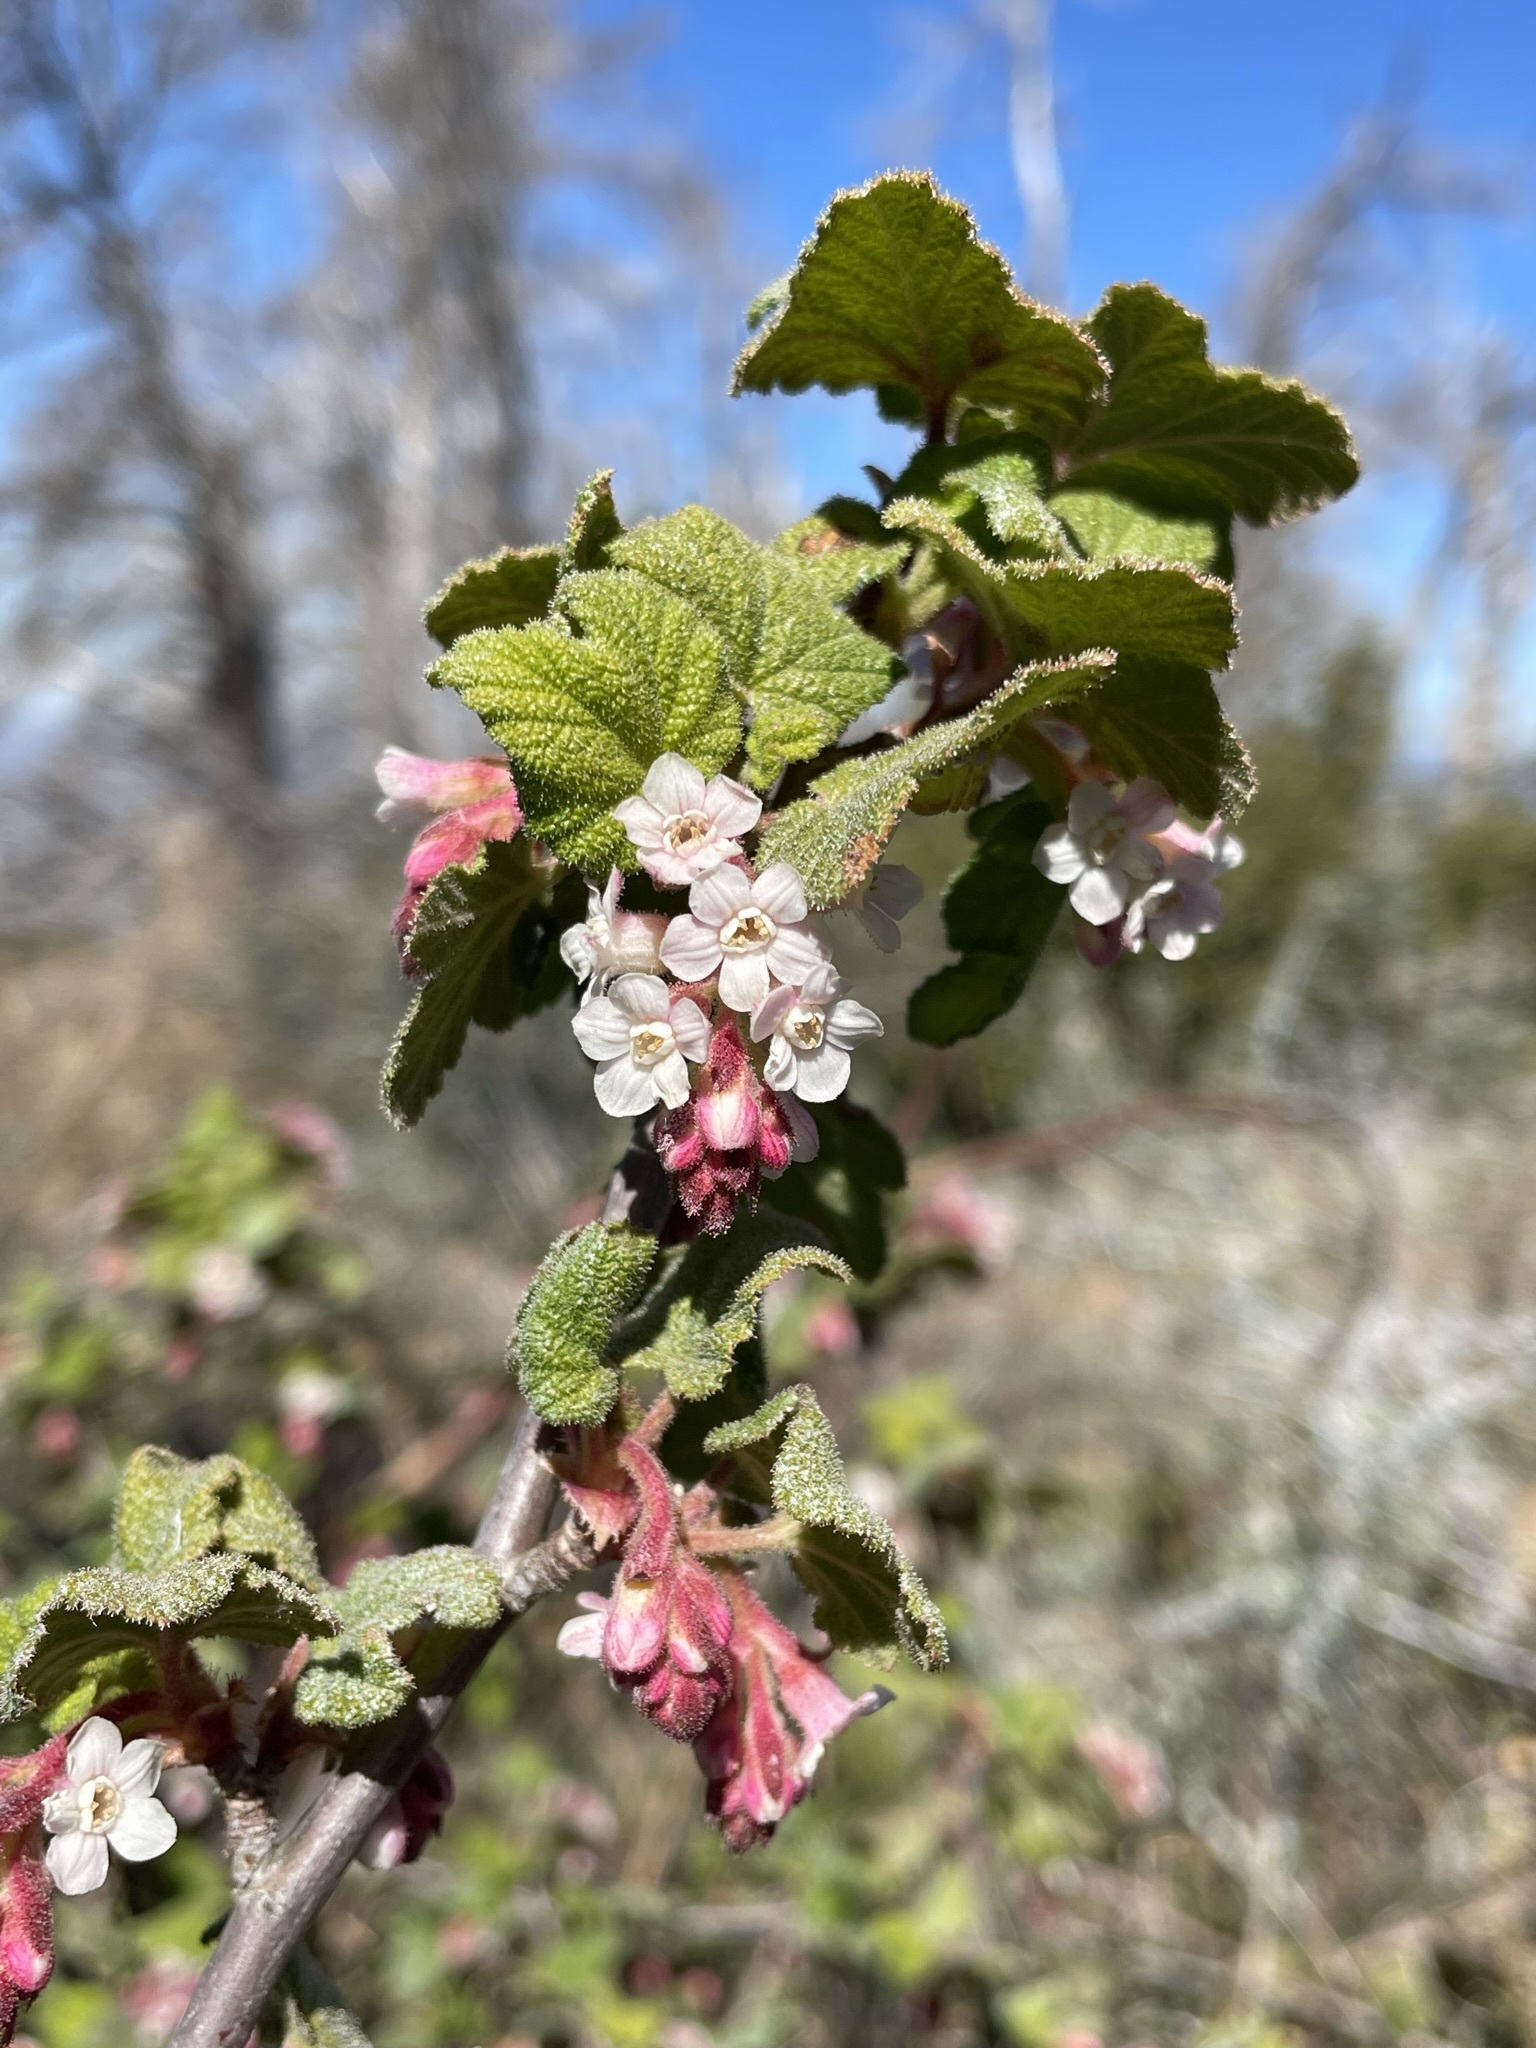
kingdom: Plantae
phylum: Tracheophyta
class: Magnoliopsida
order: Saxifragales
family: Grossulariaceae
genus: Ribes
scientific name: Ribes malvaceum
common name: Chaparral currant
